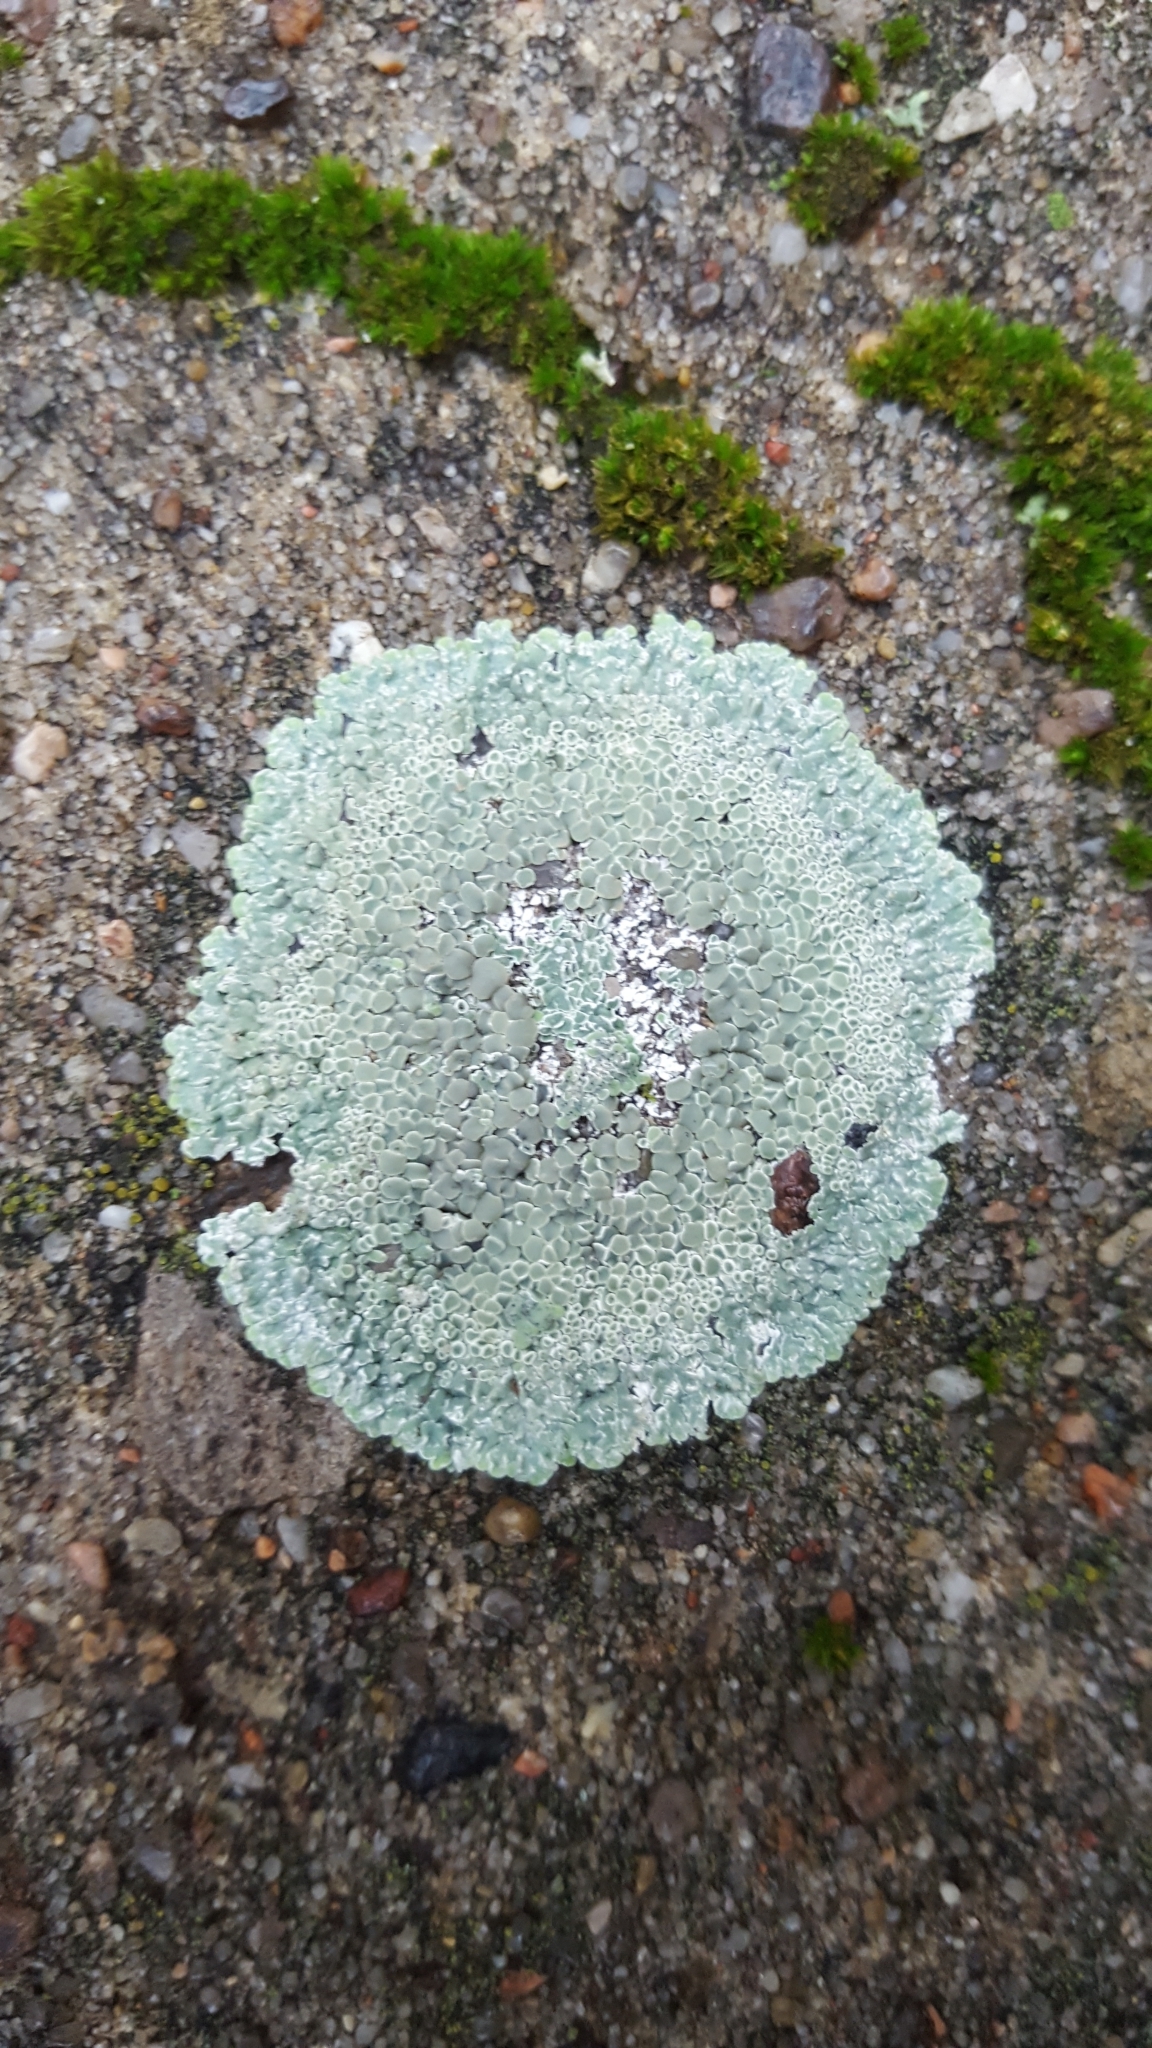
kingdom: Fungi
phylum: Ascomycota
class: Lecanoromycetes
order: Lecanorales
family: Lecanoraceae
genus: Protoparmeliopsis
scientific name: Protoparmeliopsis muralis
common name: Stonewall rim lichen
